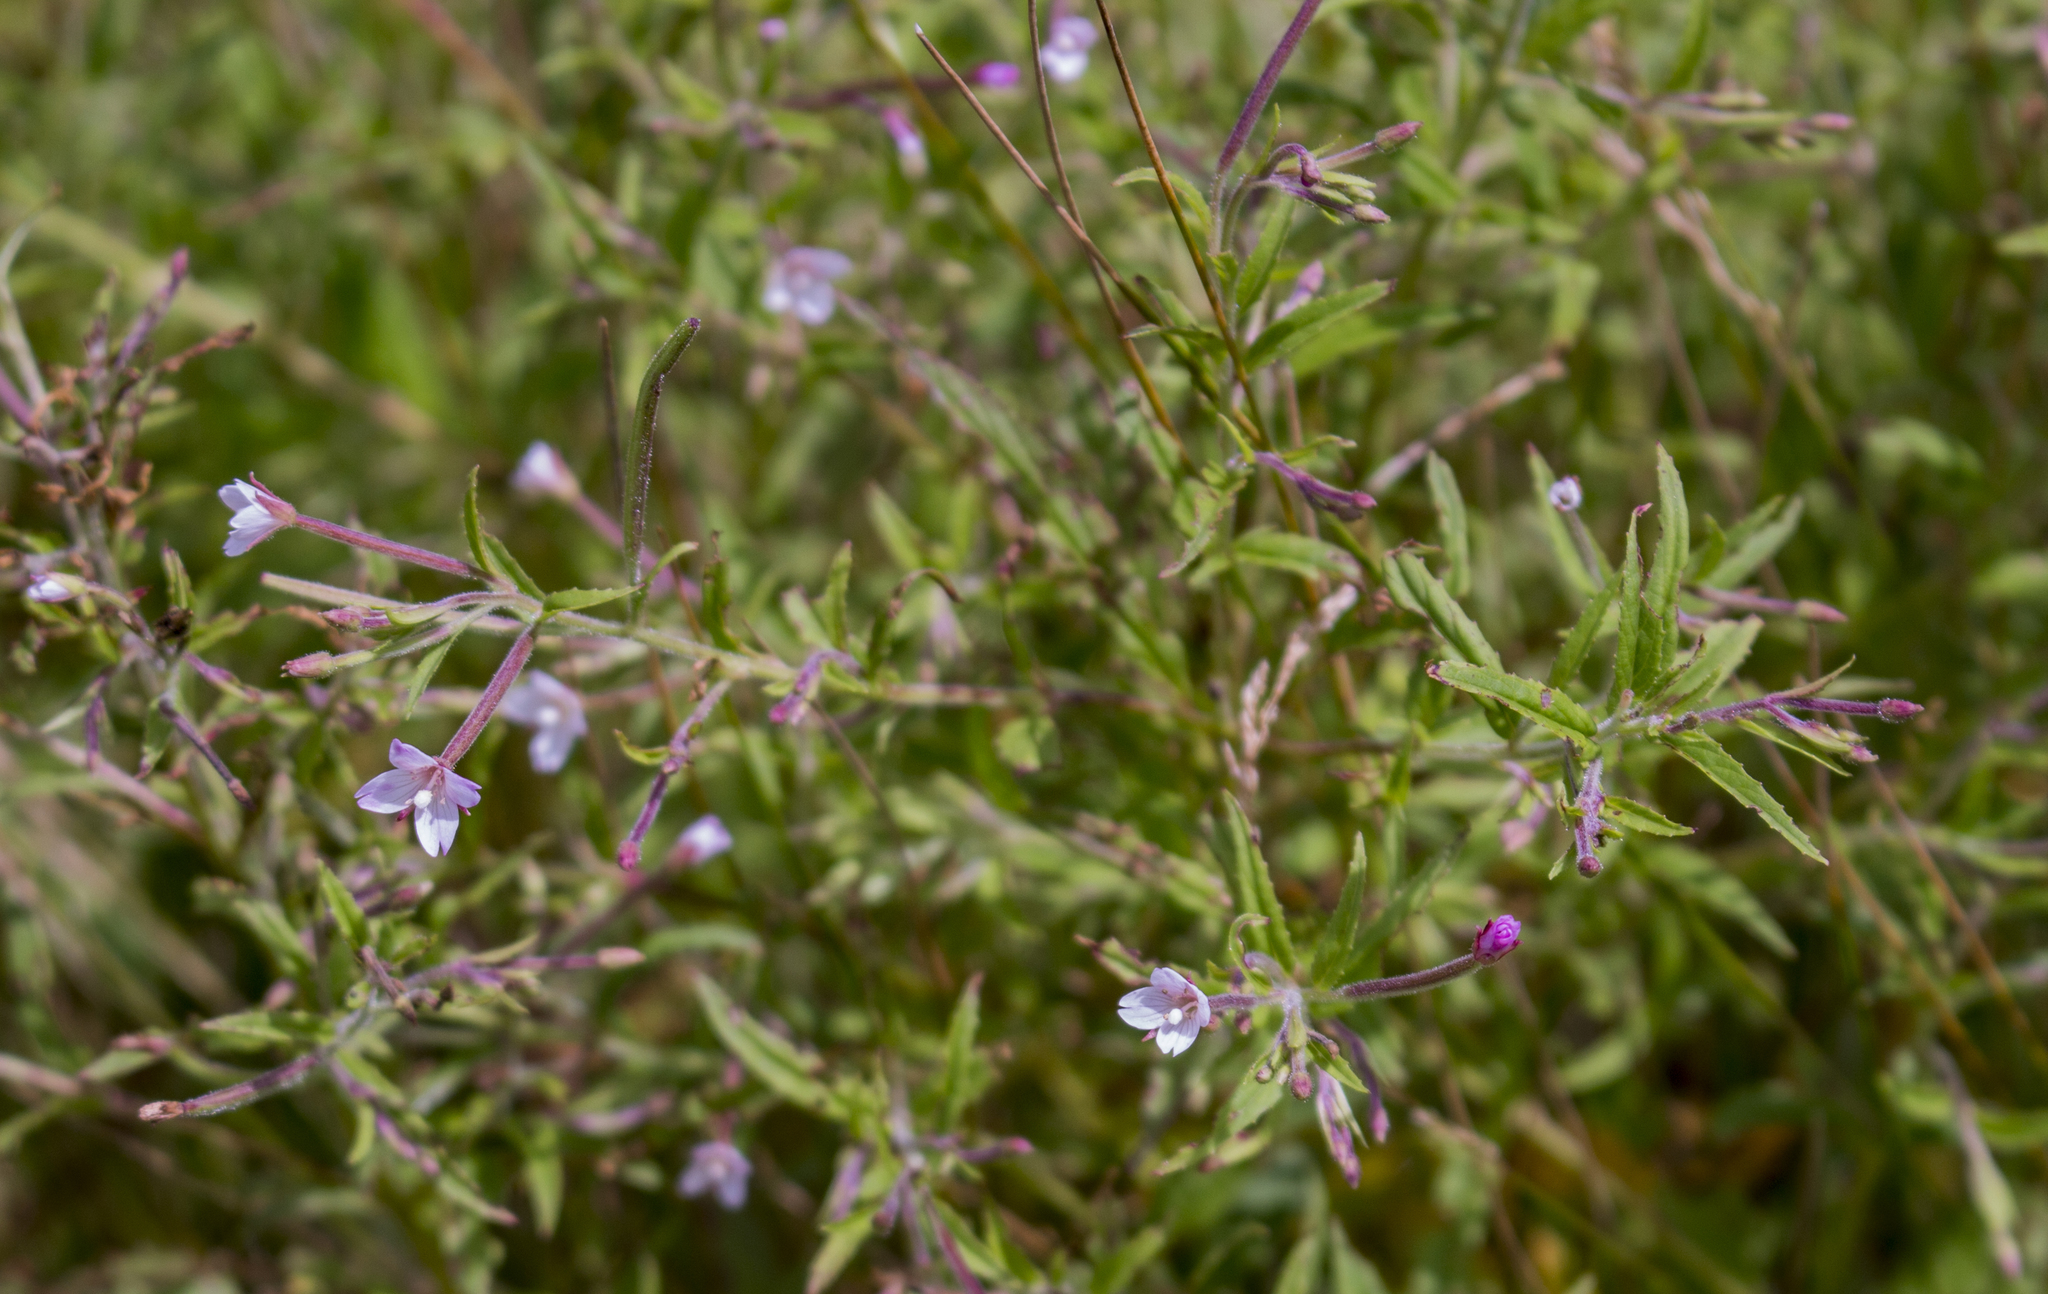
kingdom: Plantae
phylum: Tracheophyta
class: Magnoliopsida
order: Myrtales
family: Onagraceae
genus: Epilobium
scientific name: Epilobium coloratum
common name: Bronze willowherb
